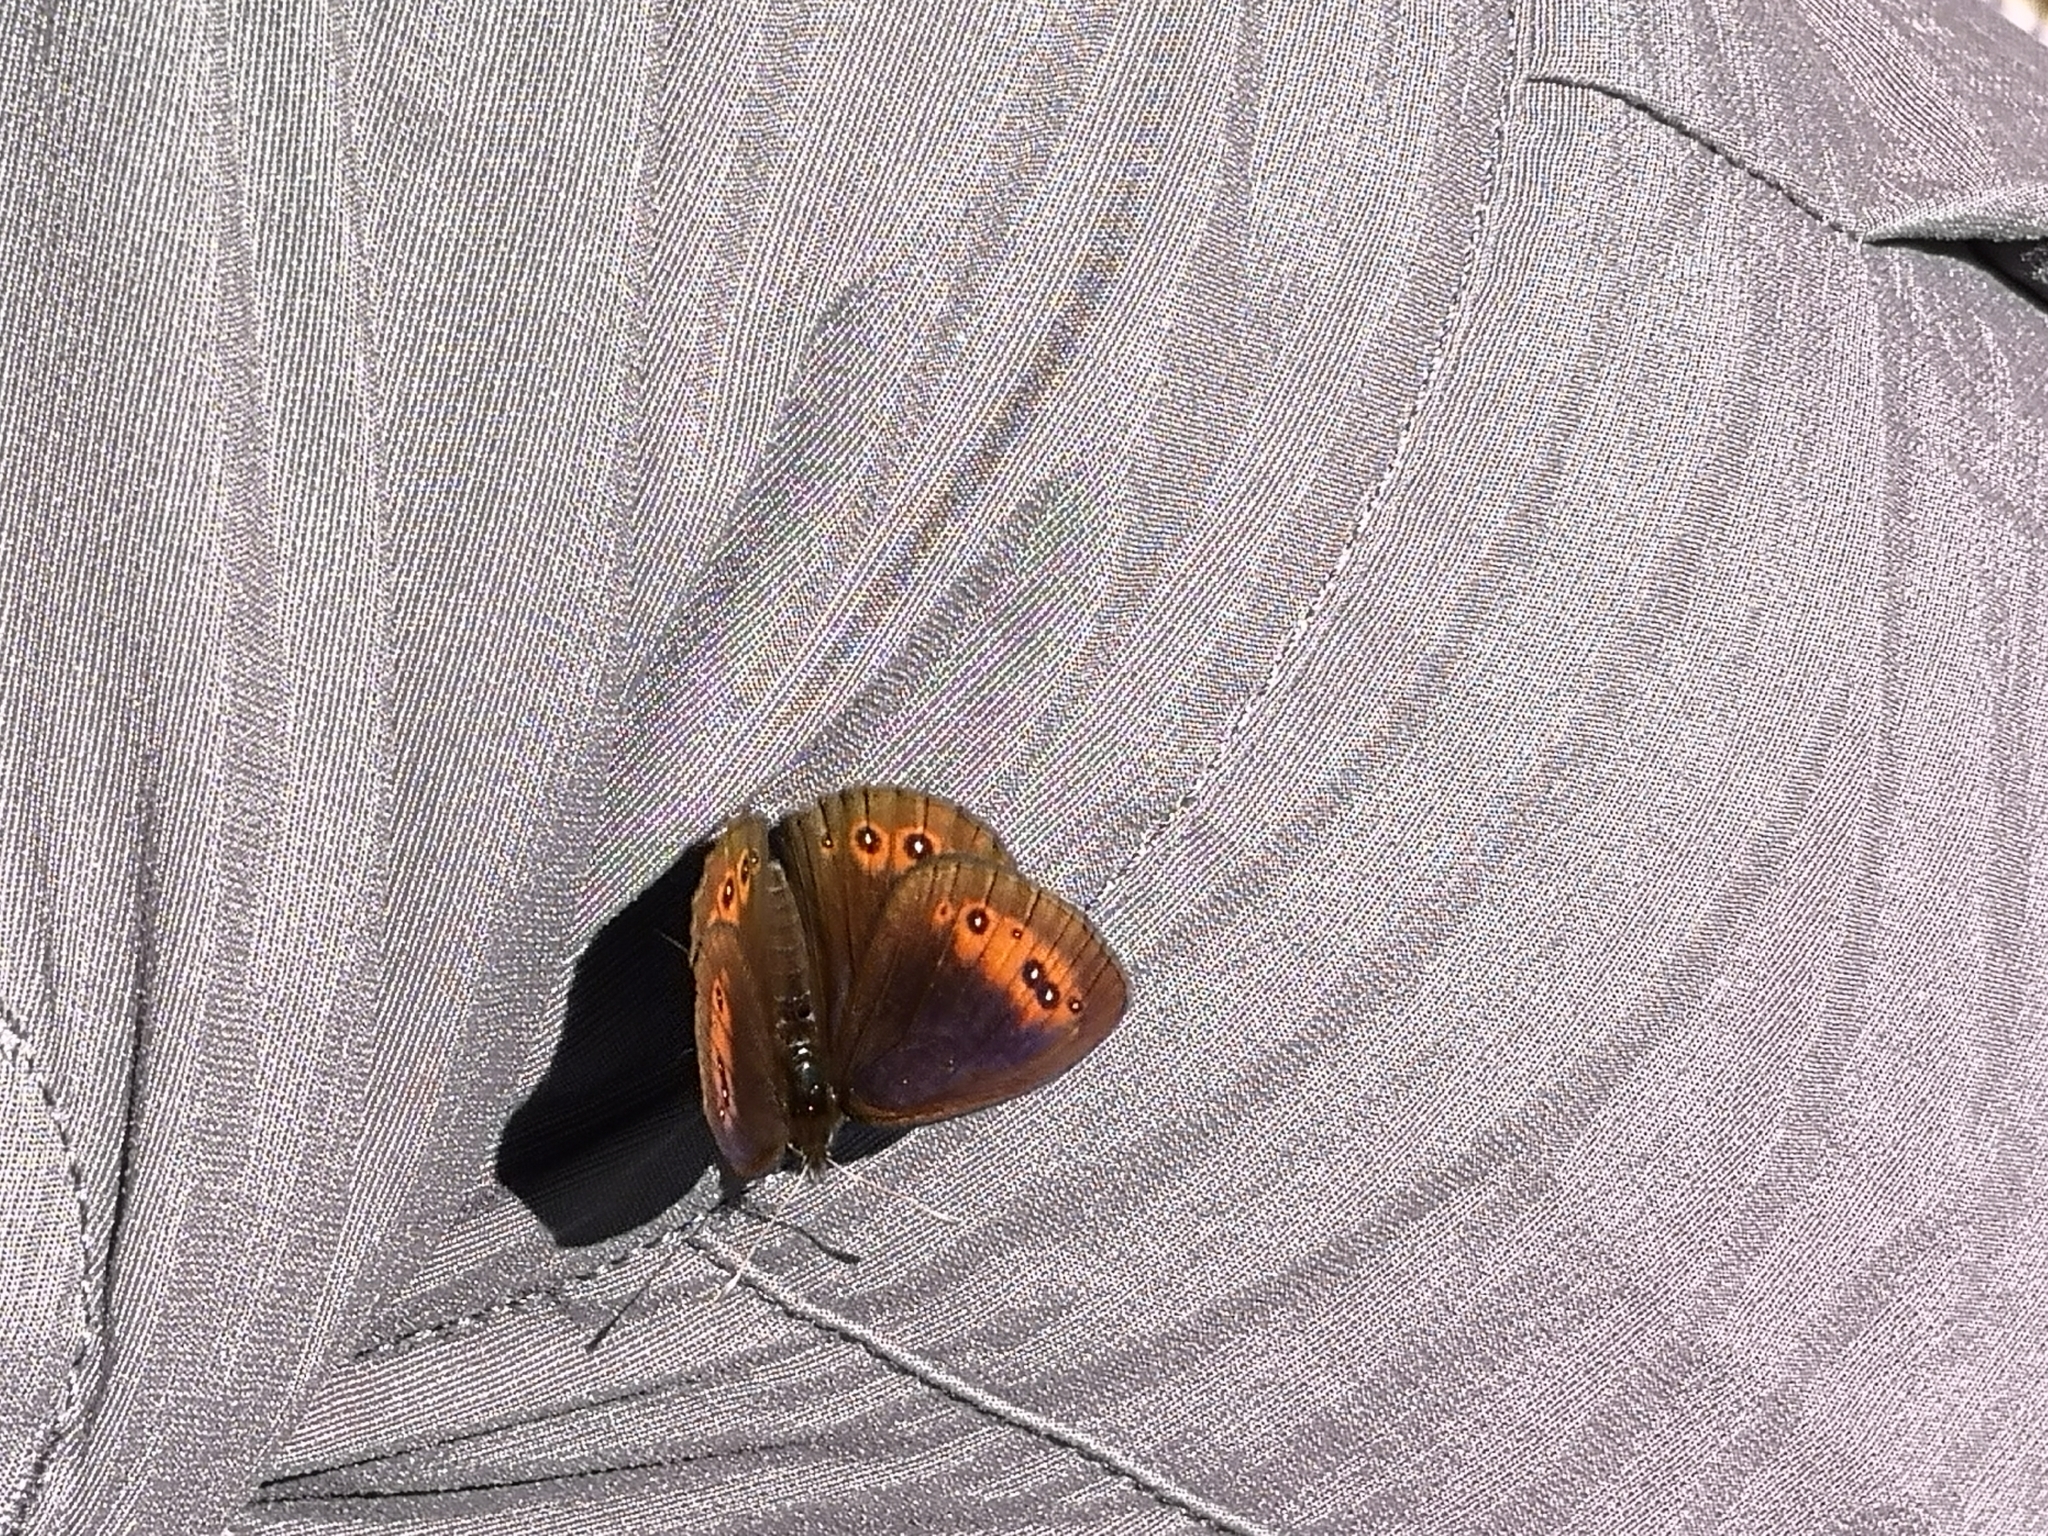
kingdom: Animalia
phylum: Arthropoda
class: Insecta
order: Lepidoptera
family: Nymphalidae
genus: Erebia
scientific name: Erebia meolans
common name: Piedmont ringlet
